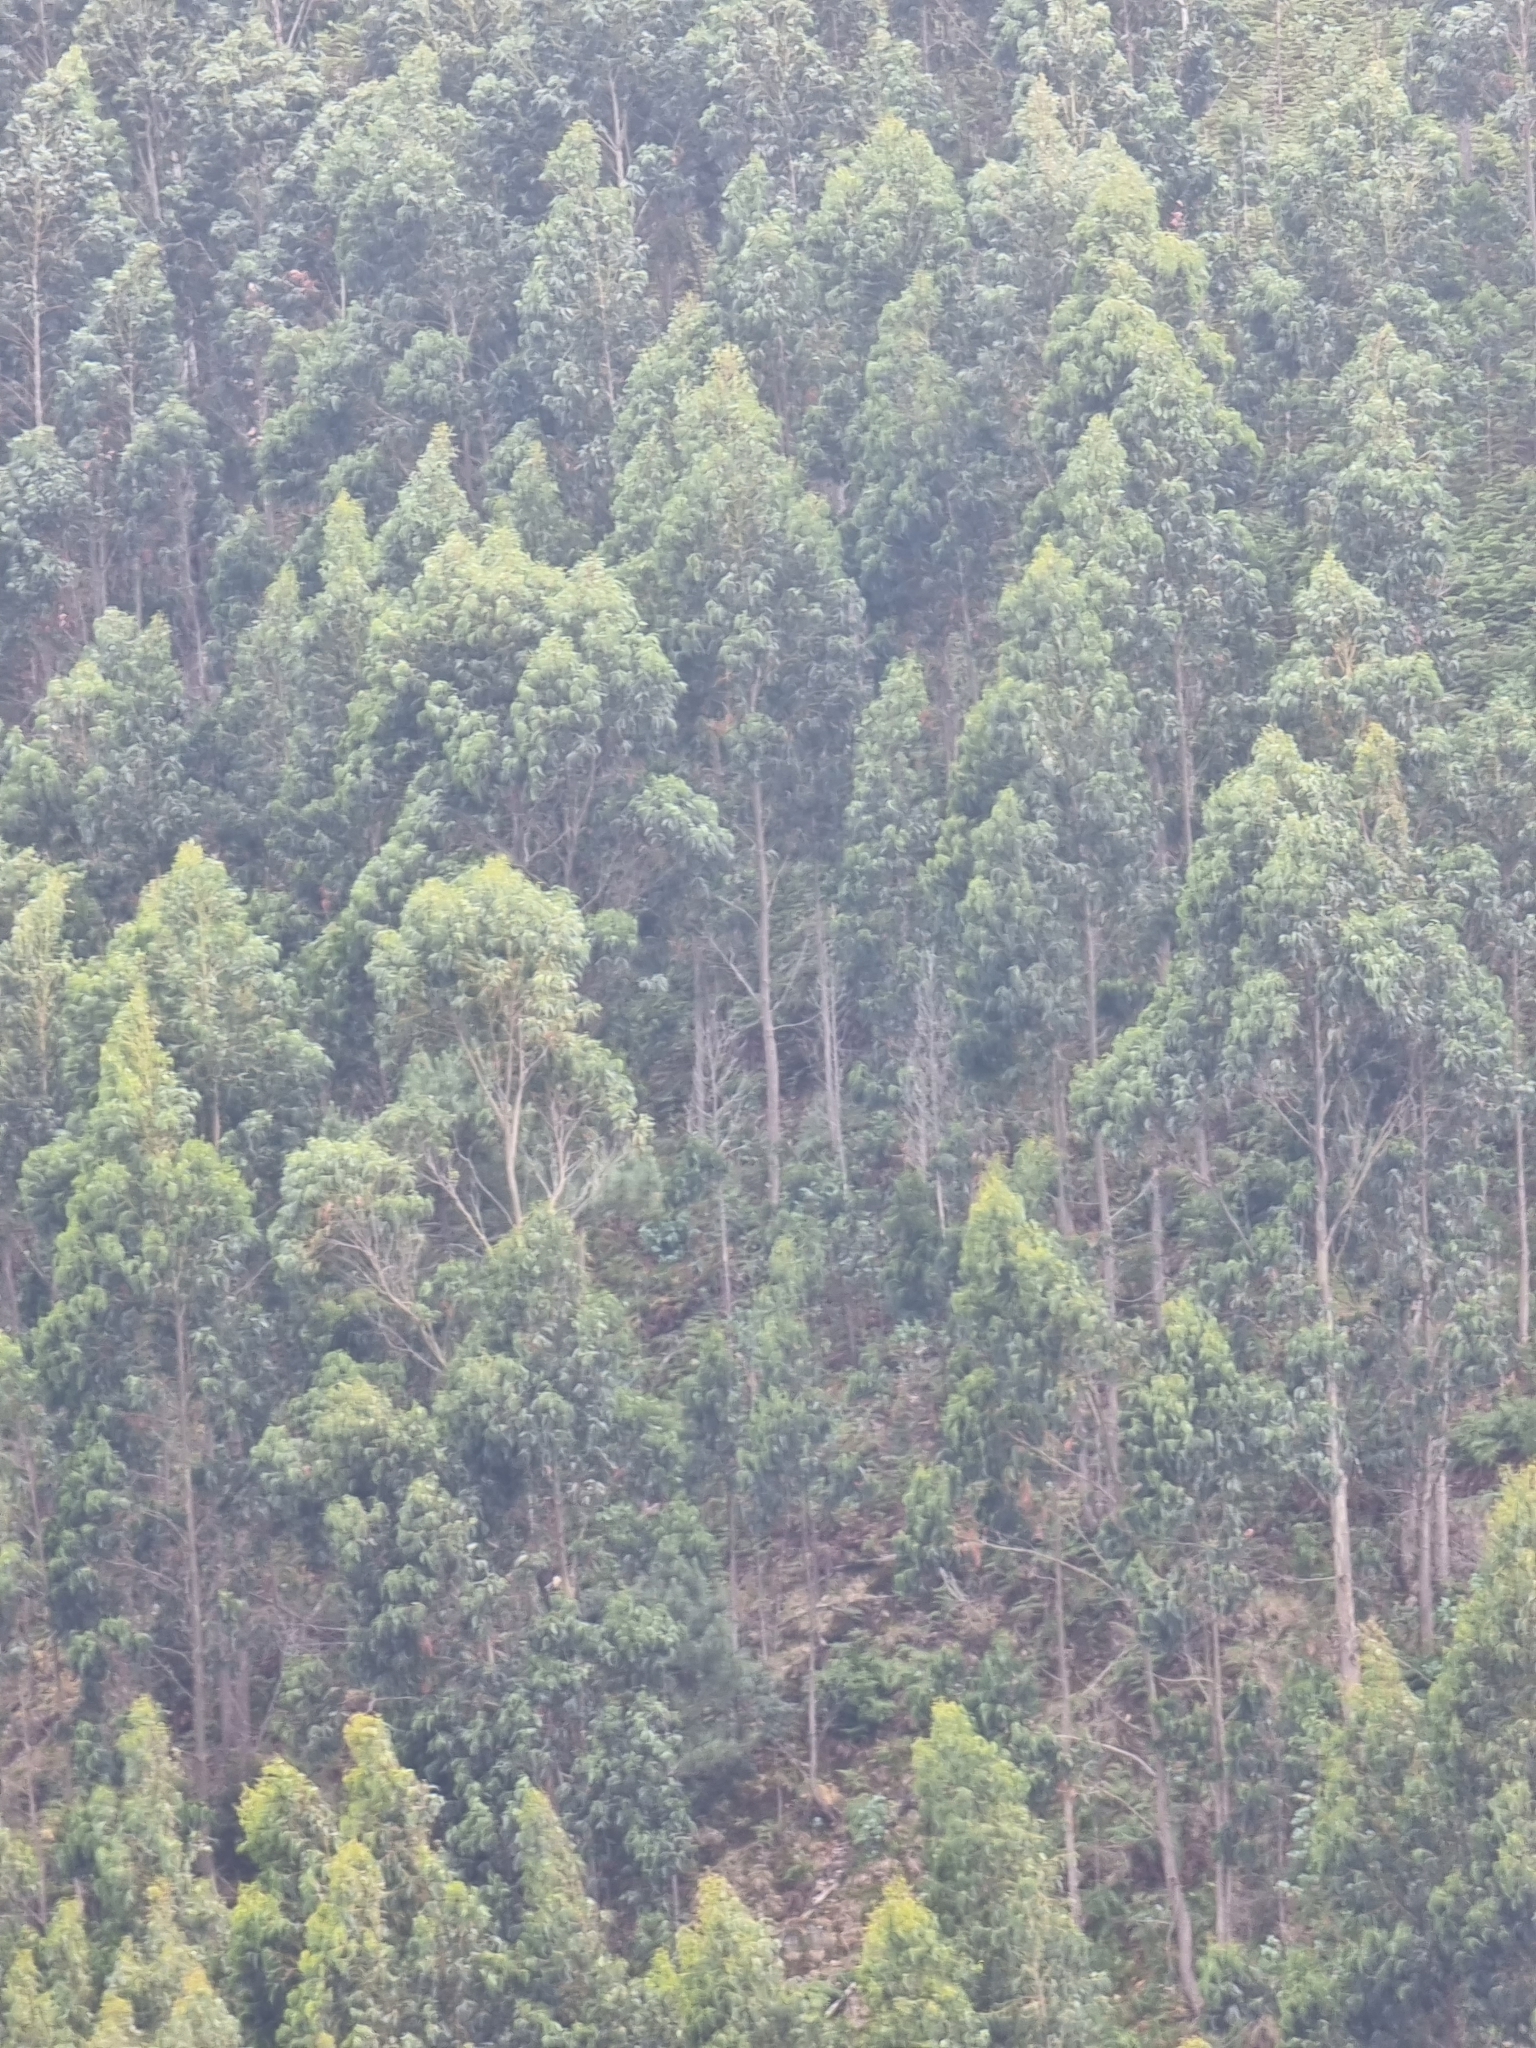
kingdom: Plantae
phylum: Tracheophyta
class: Magnoliopsida
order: Myrtales
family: Myrtaceae
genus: Eucalyptus
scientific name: Eucalyptus globulus
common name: Southern blue-gum
